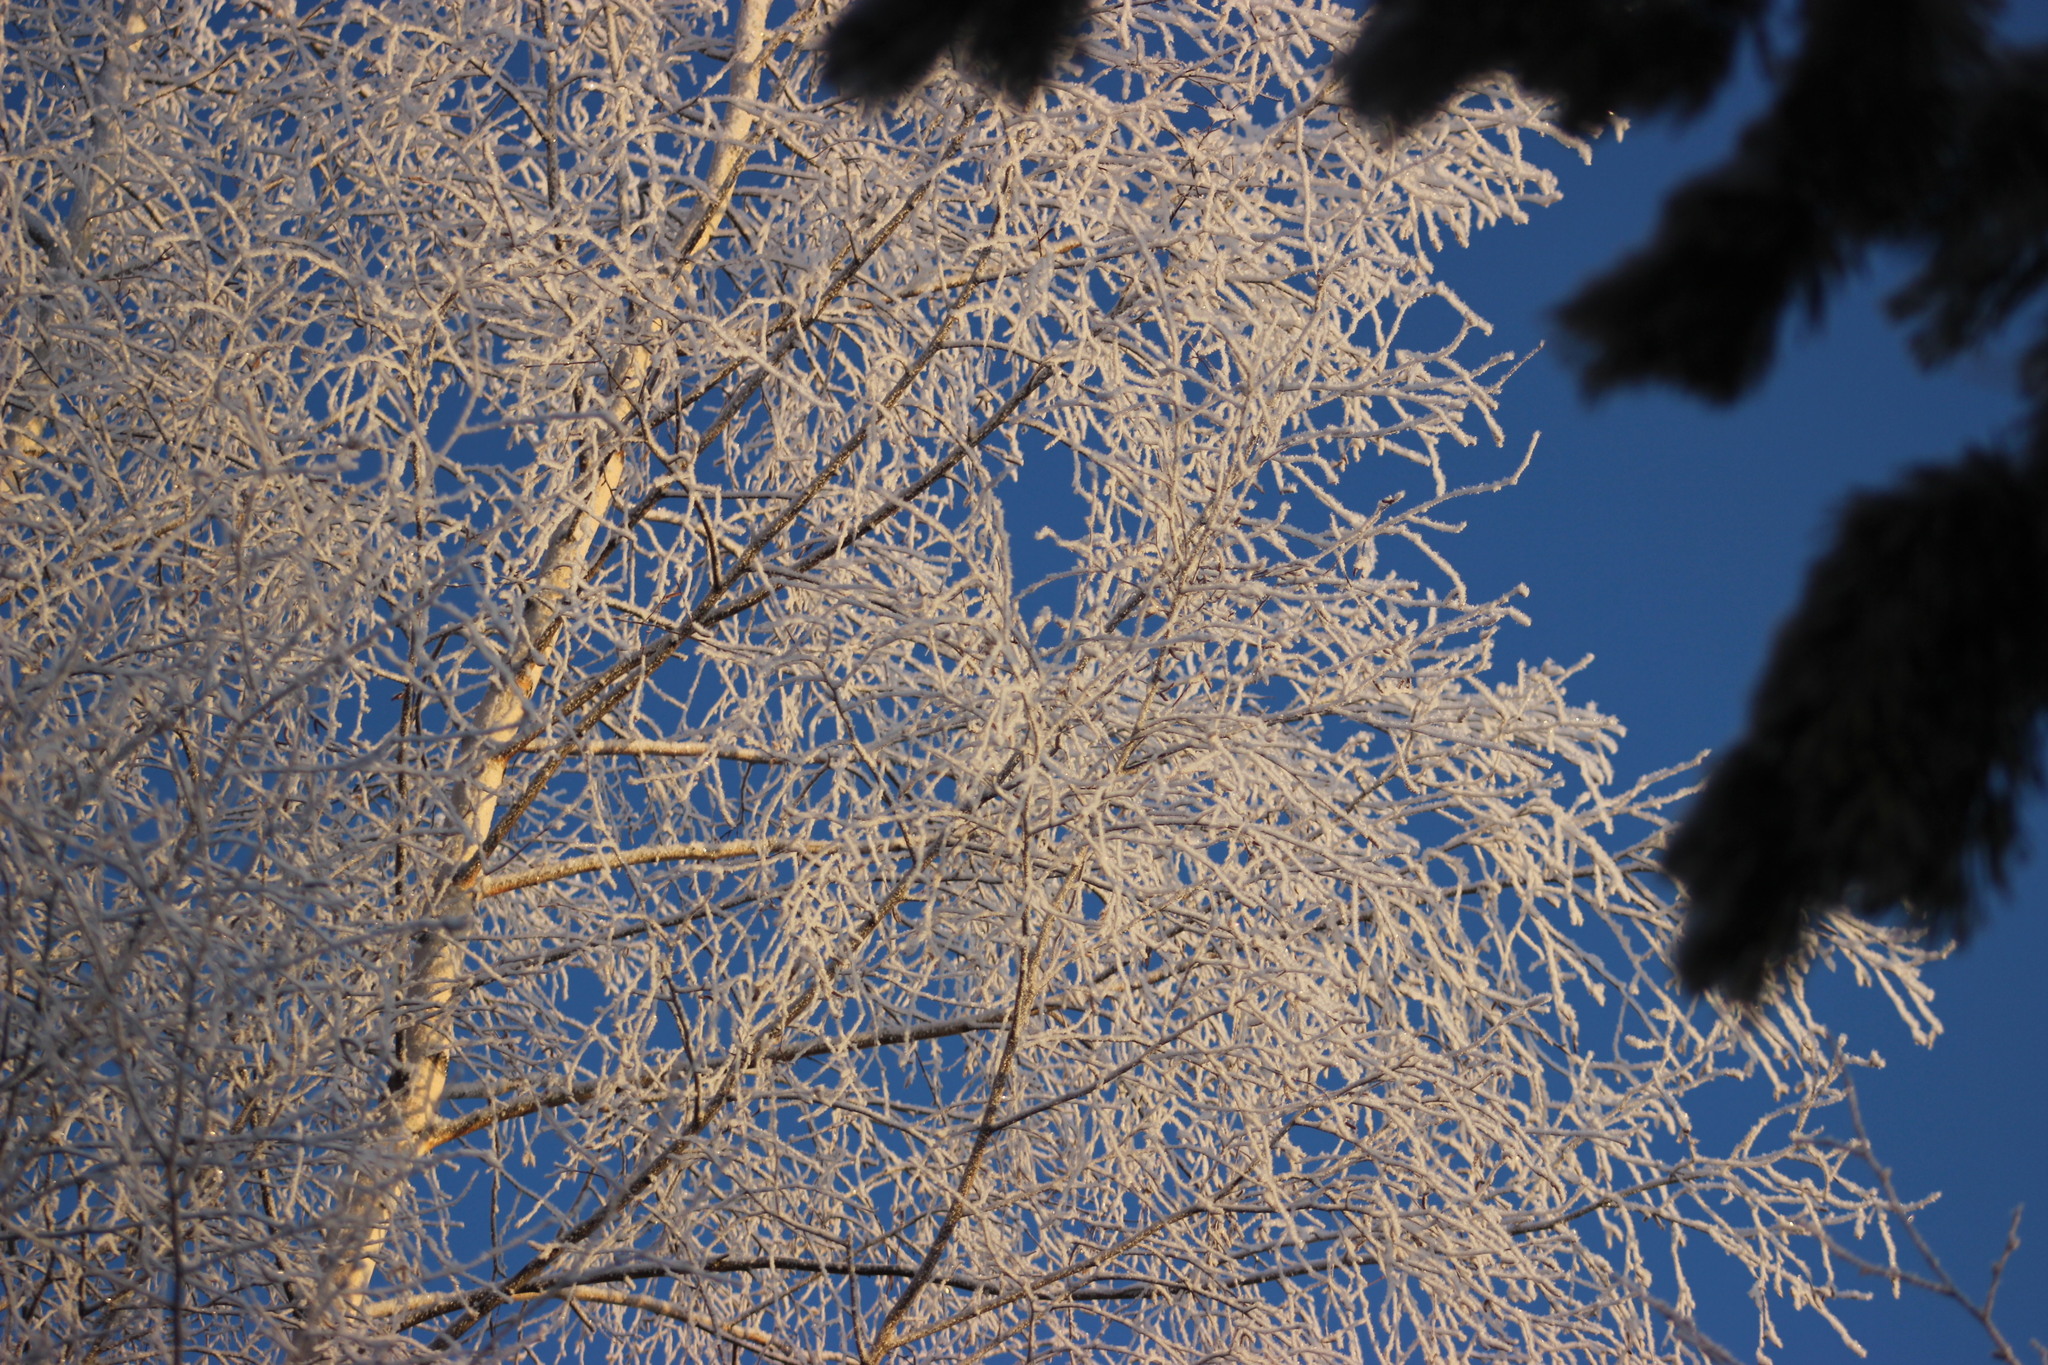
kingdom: Plantae
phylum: Tracheophyta
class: Magnoliopsida
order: Fagales
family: Betulaceae
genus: Betula
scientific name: Betula pubescens
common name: Downy birch
